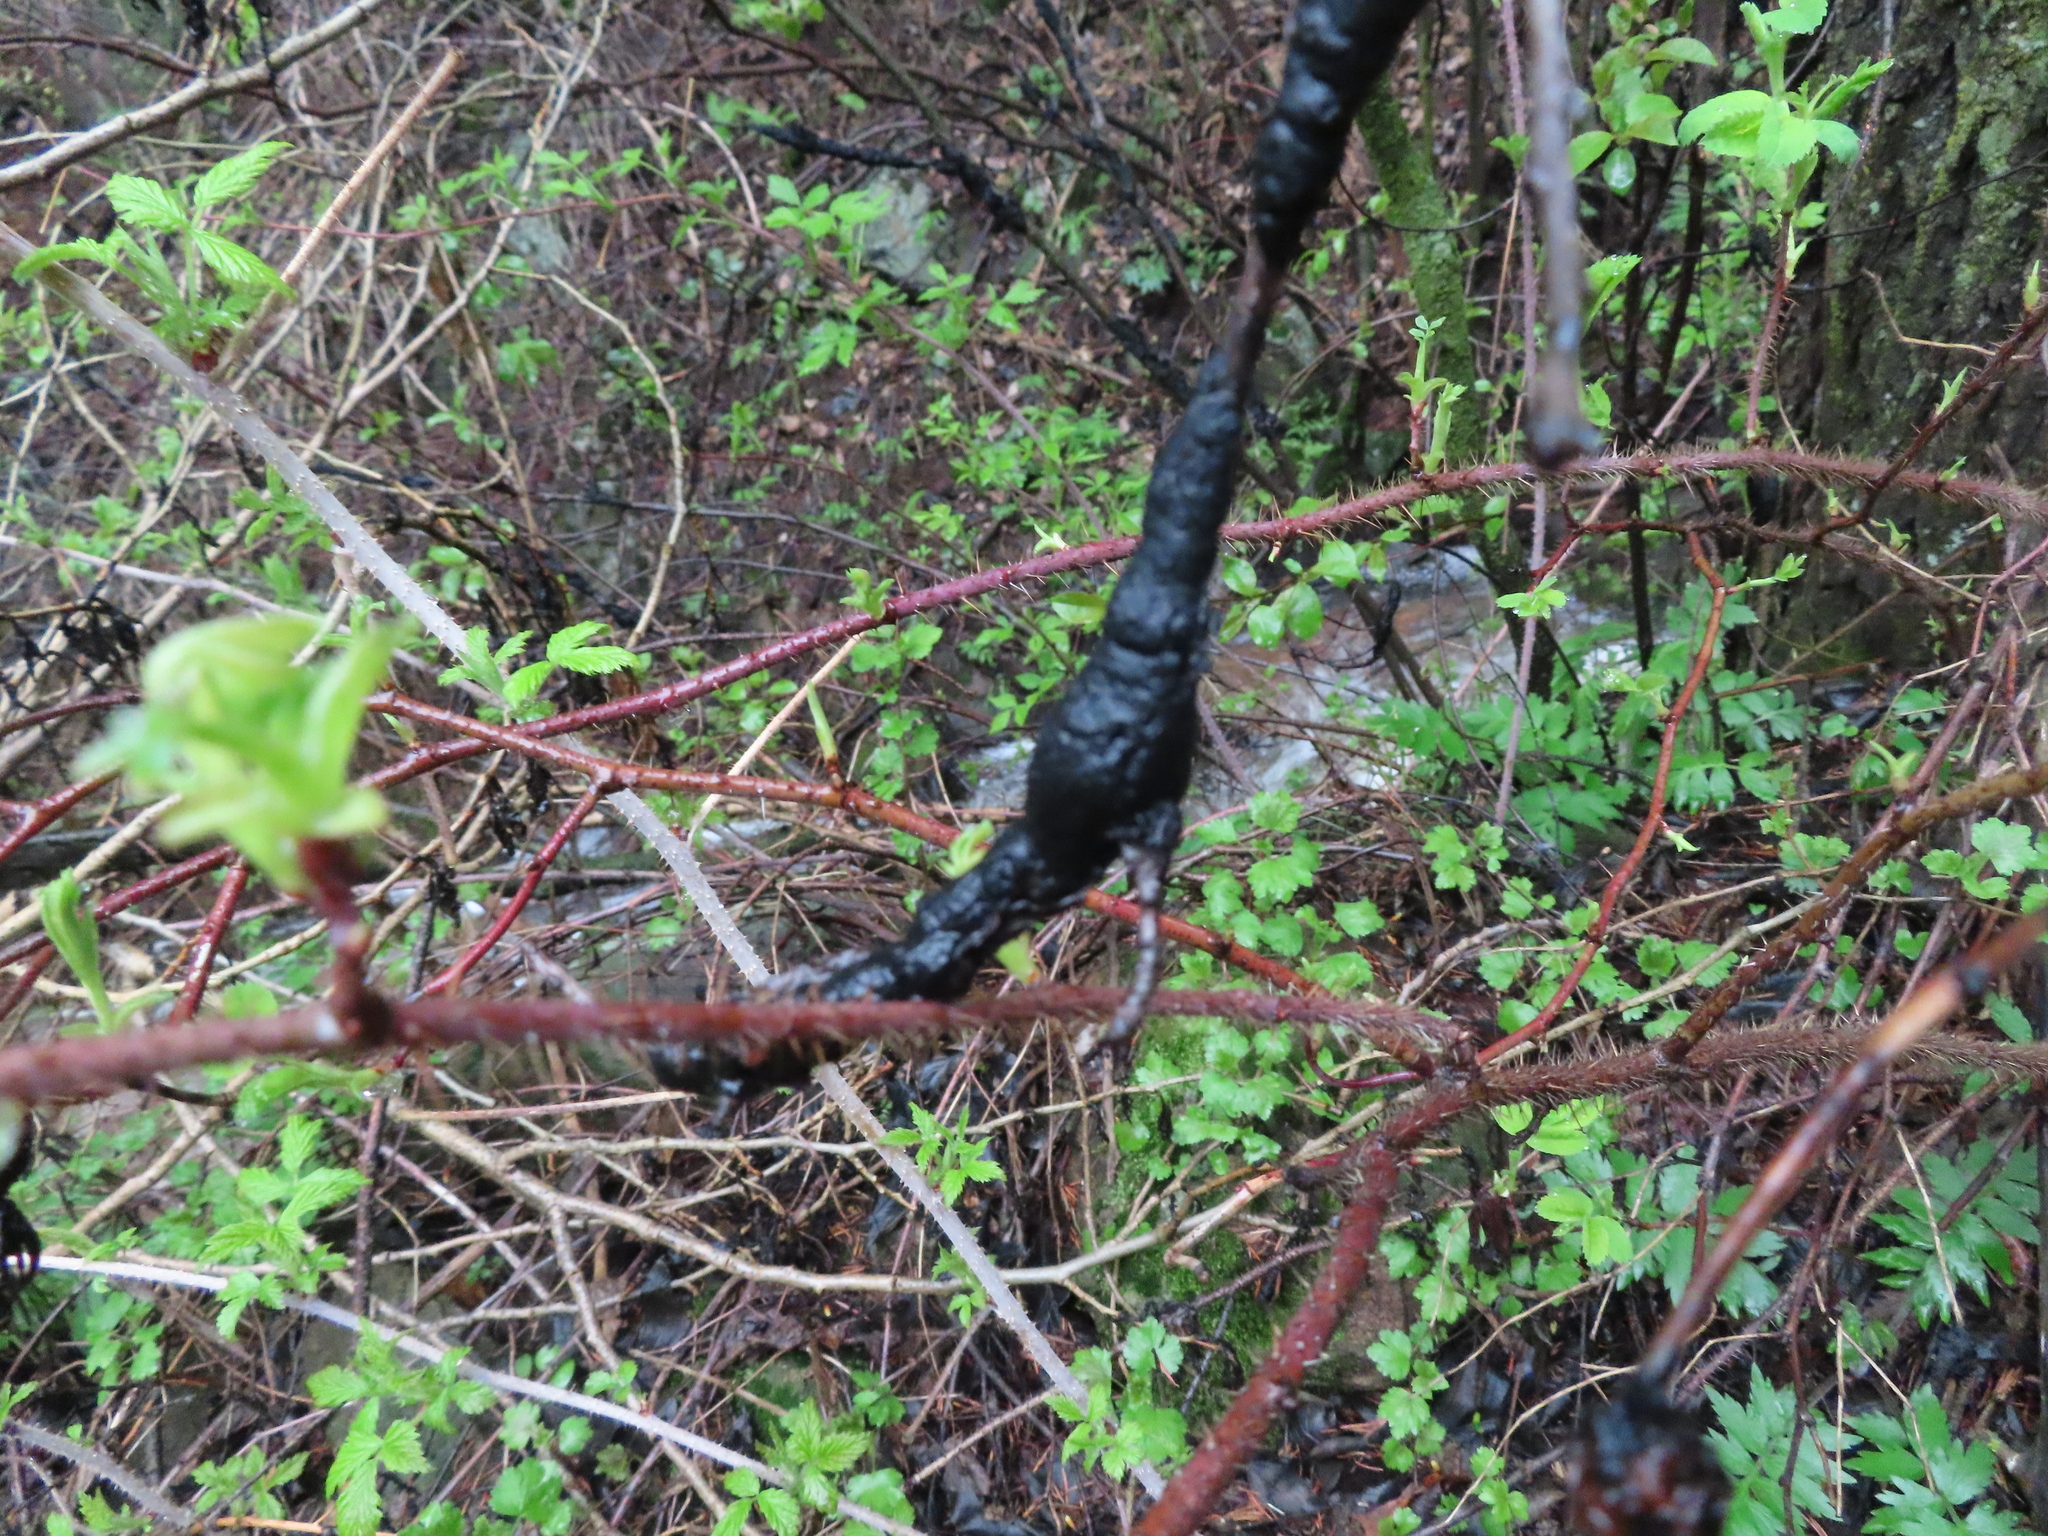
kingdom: Fungi
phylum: Ascomycota
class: Dothideomycetes
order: Venturiales
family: Venturiaceae
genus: Apiosporina
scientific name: Apiosporina morbosa
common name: Black knot
